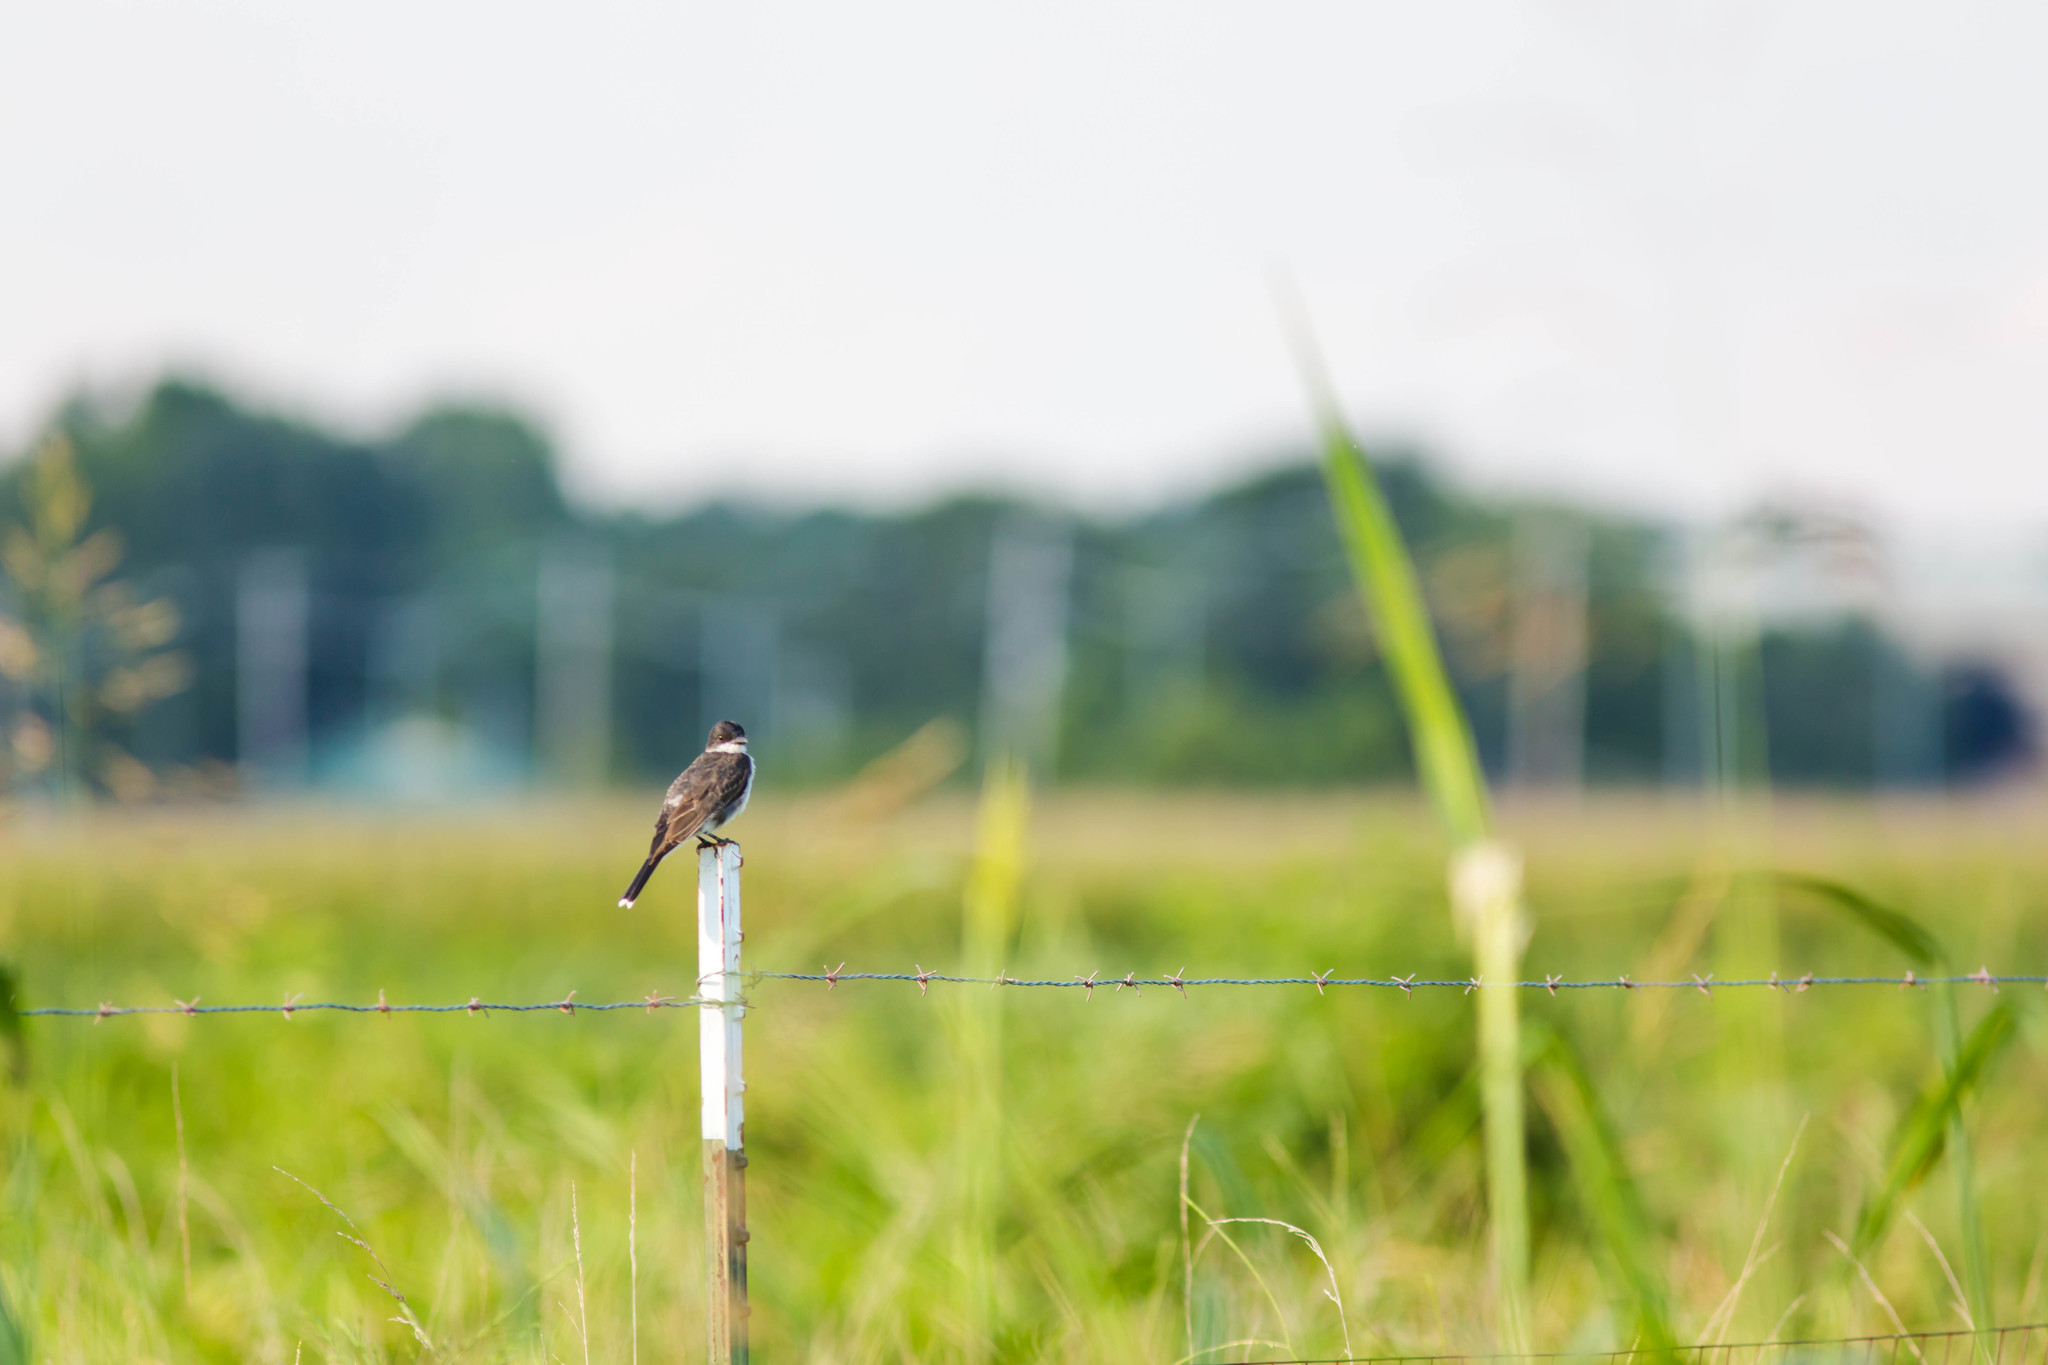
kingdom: Animalia
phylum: Chordata
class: Aves
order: Passeriformes
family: Tyrannidae
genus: Tyrannus
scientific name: Tyrannus tyrannus
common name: Eastern kingbird
